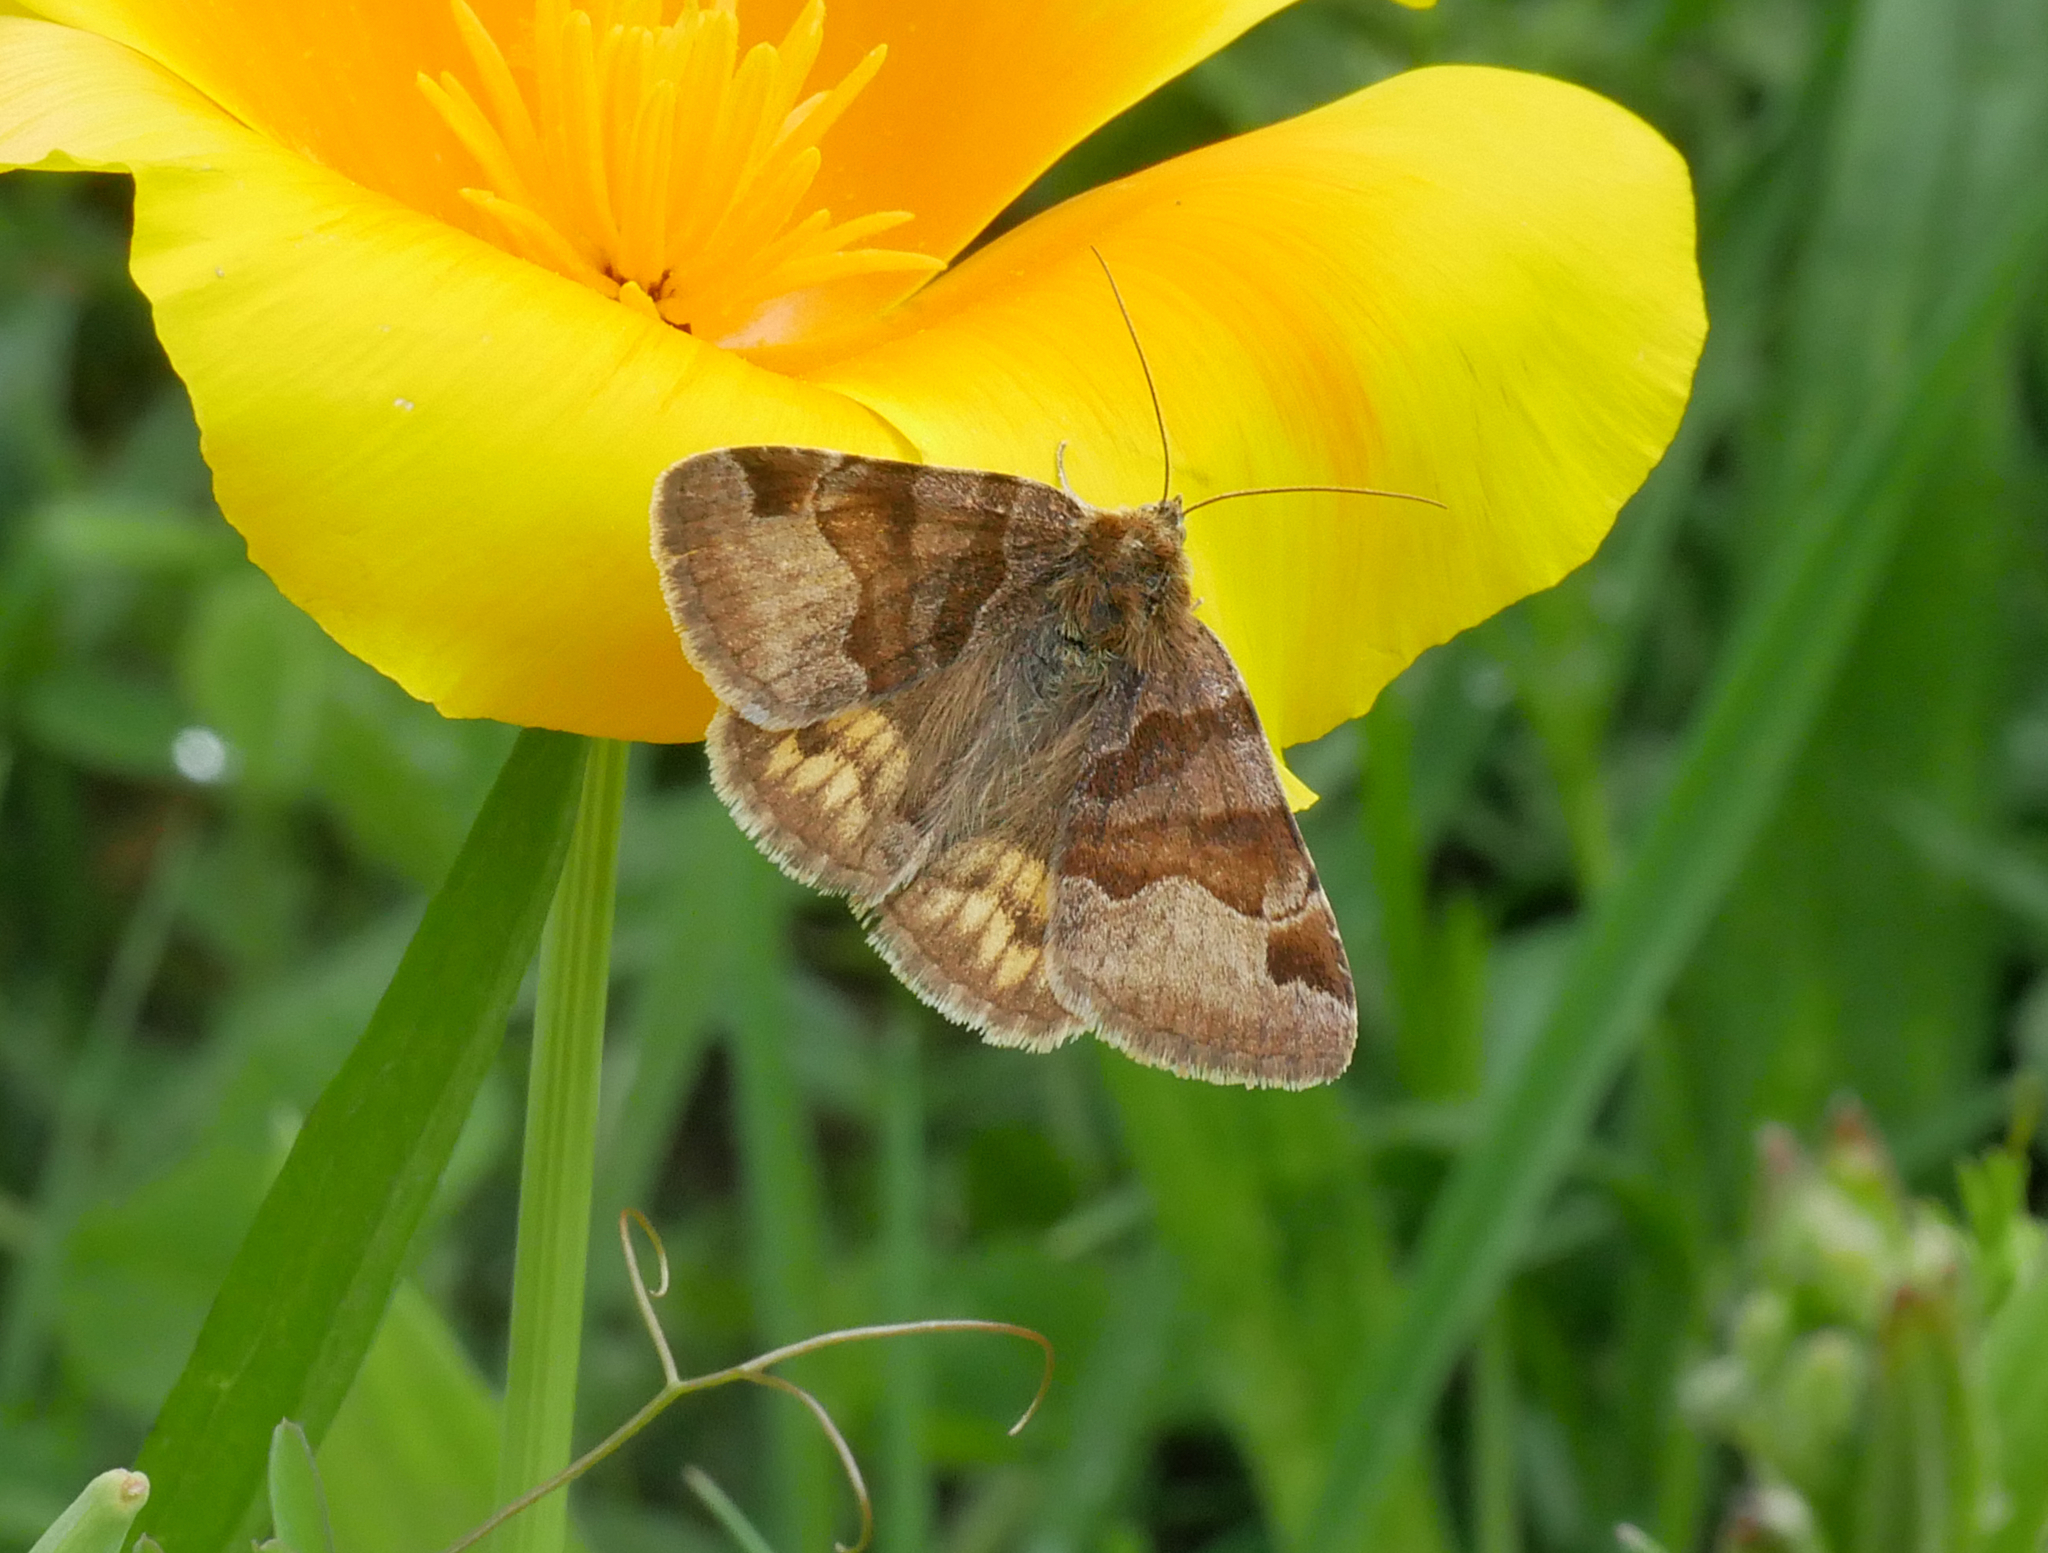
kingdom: Animalia
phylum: Arthropoda
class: Insecta
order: Lepidoptera
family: Erebidae
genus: Euclidia
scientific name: Euclidia glyphica
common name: Burnet companion
